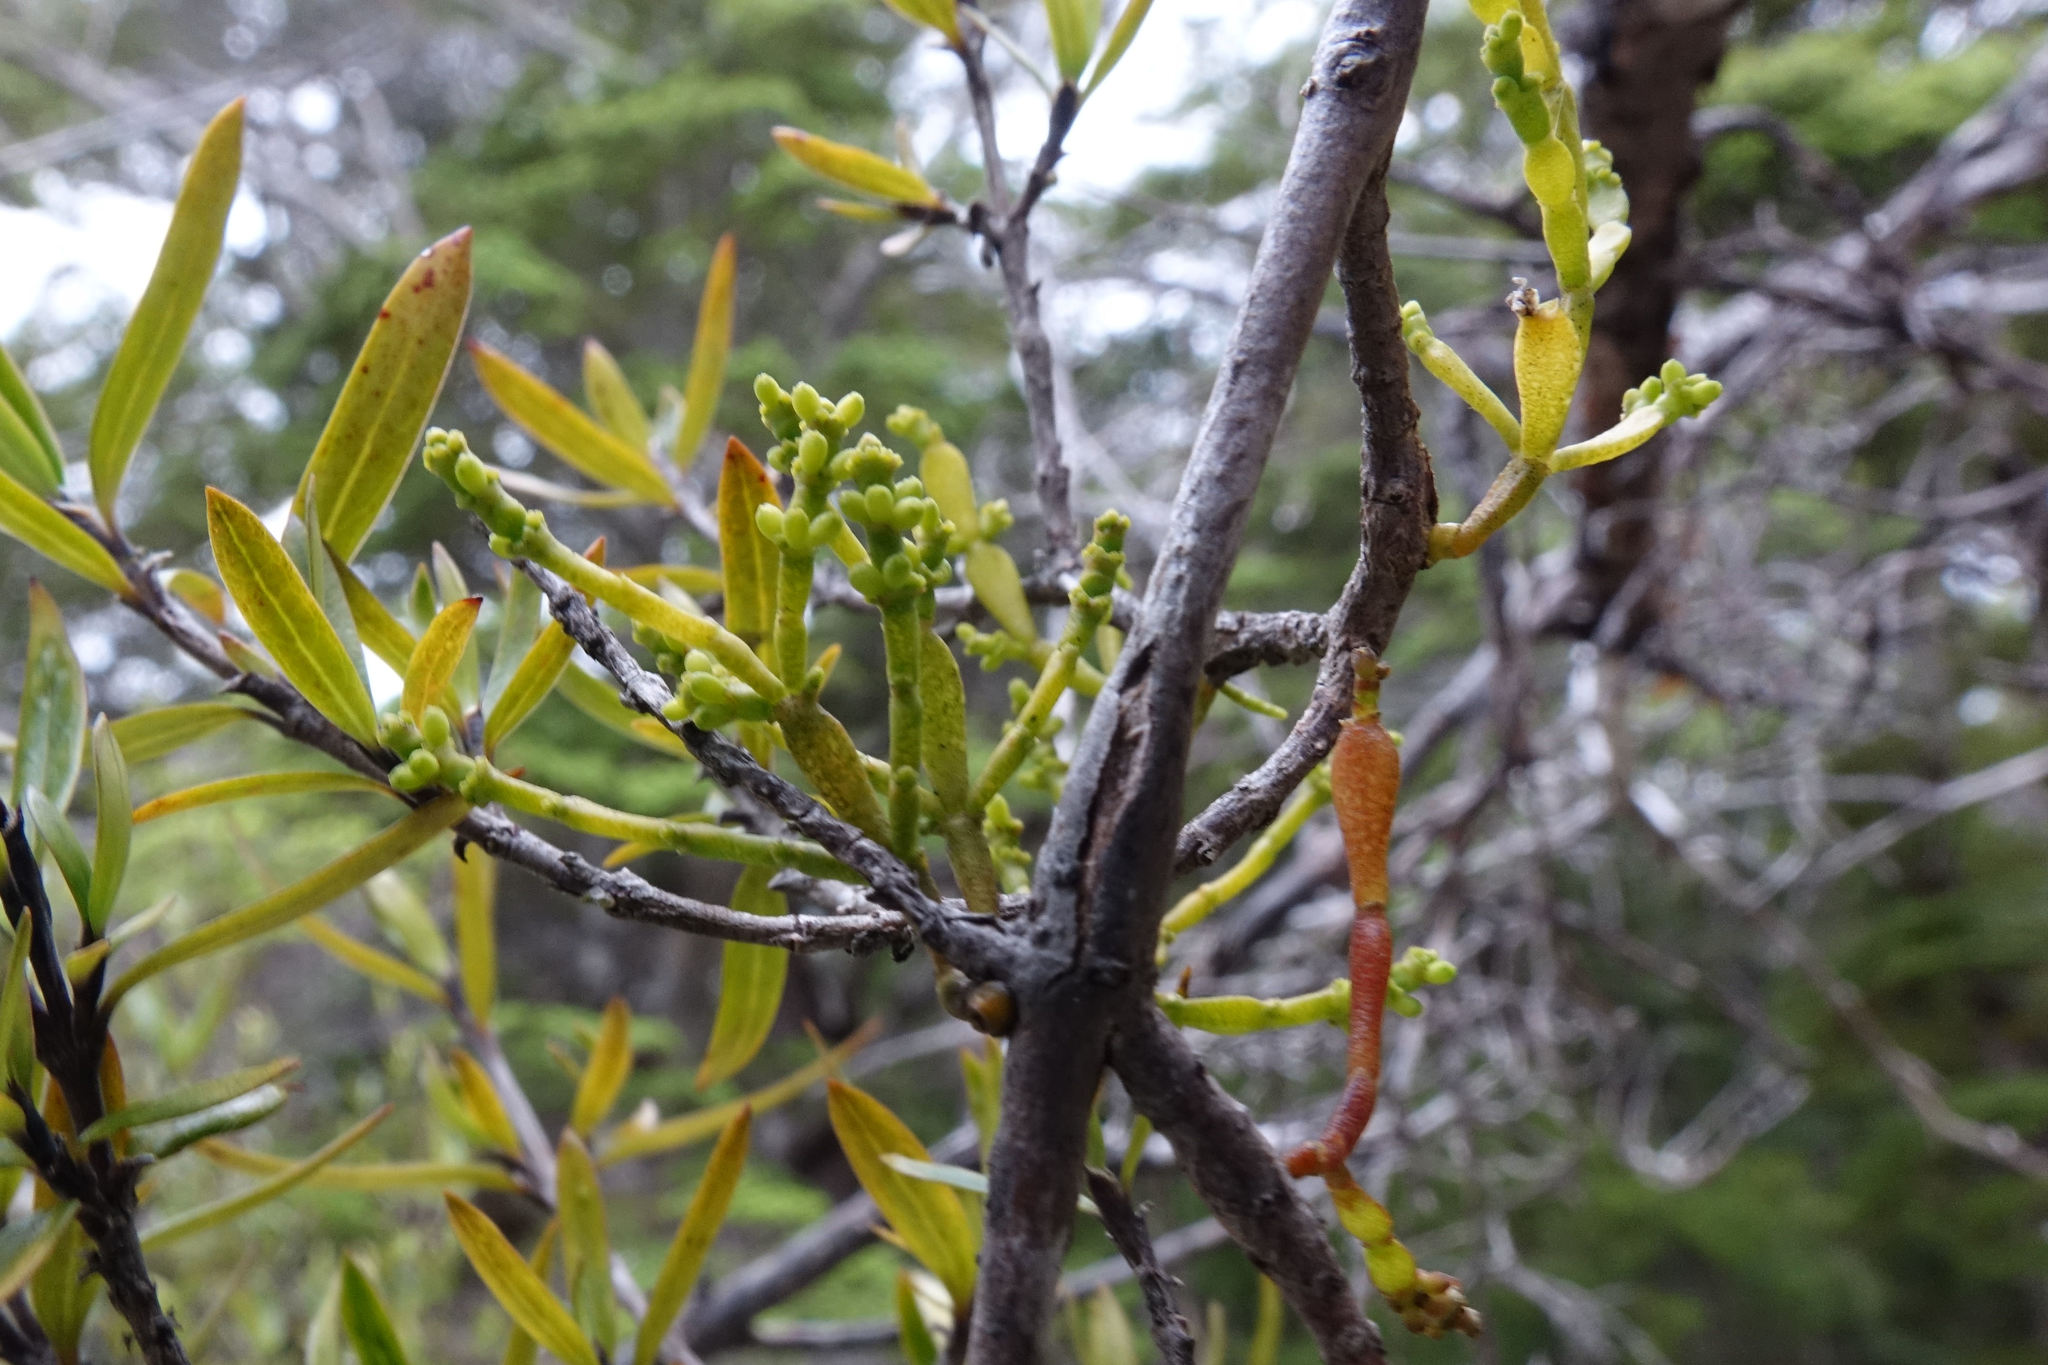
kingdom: Plantae
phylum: Tracheophyta
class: Magnoliopsida
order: Santalales
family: Viscaceae
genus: Korthalsella
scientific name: Korthalsella clavata
